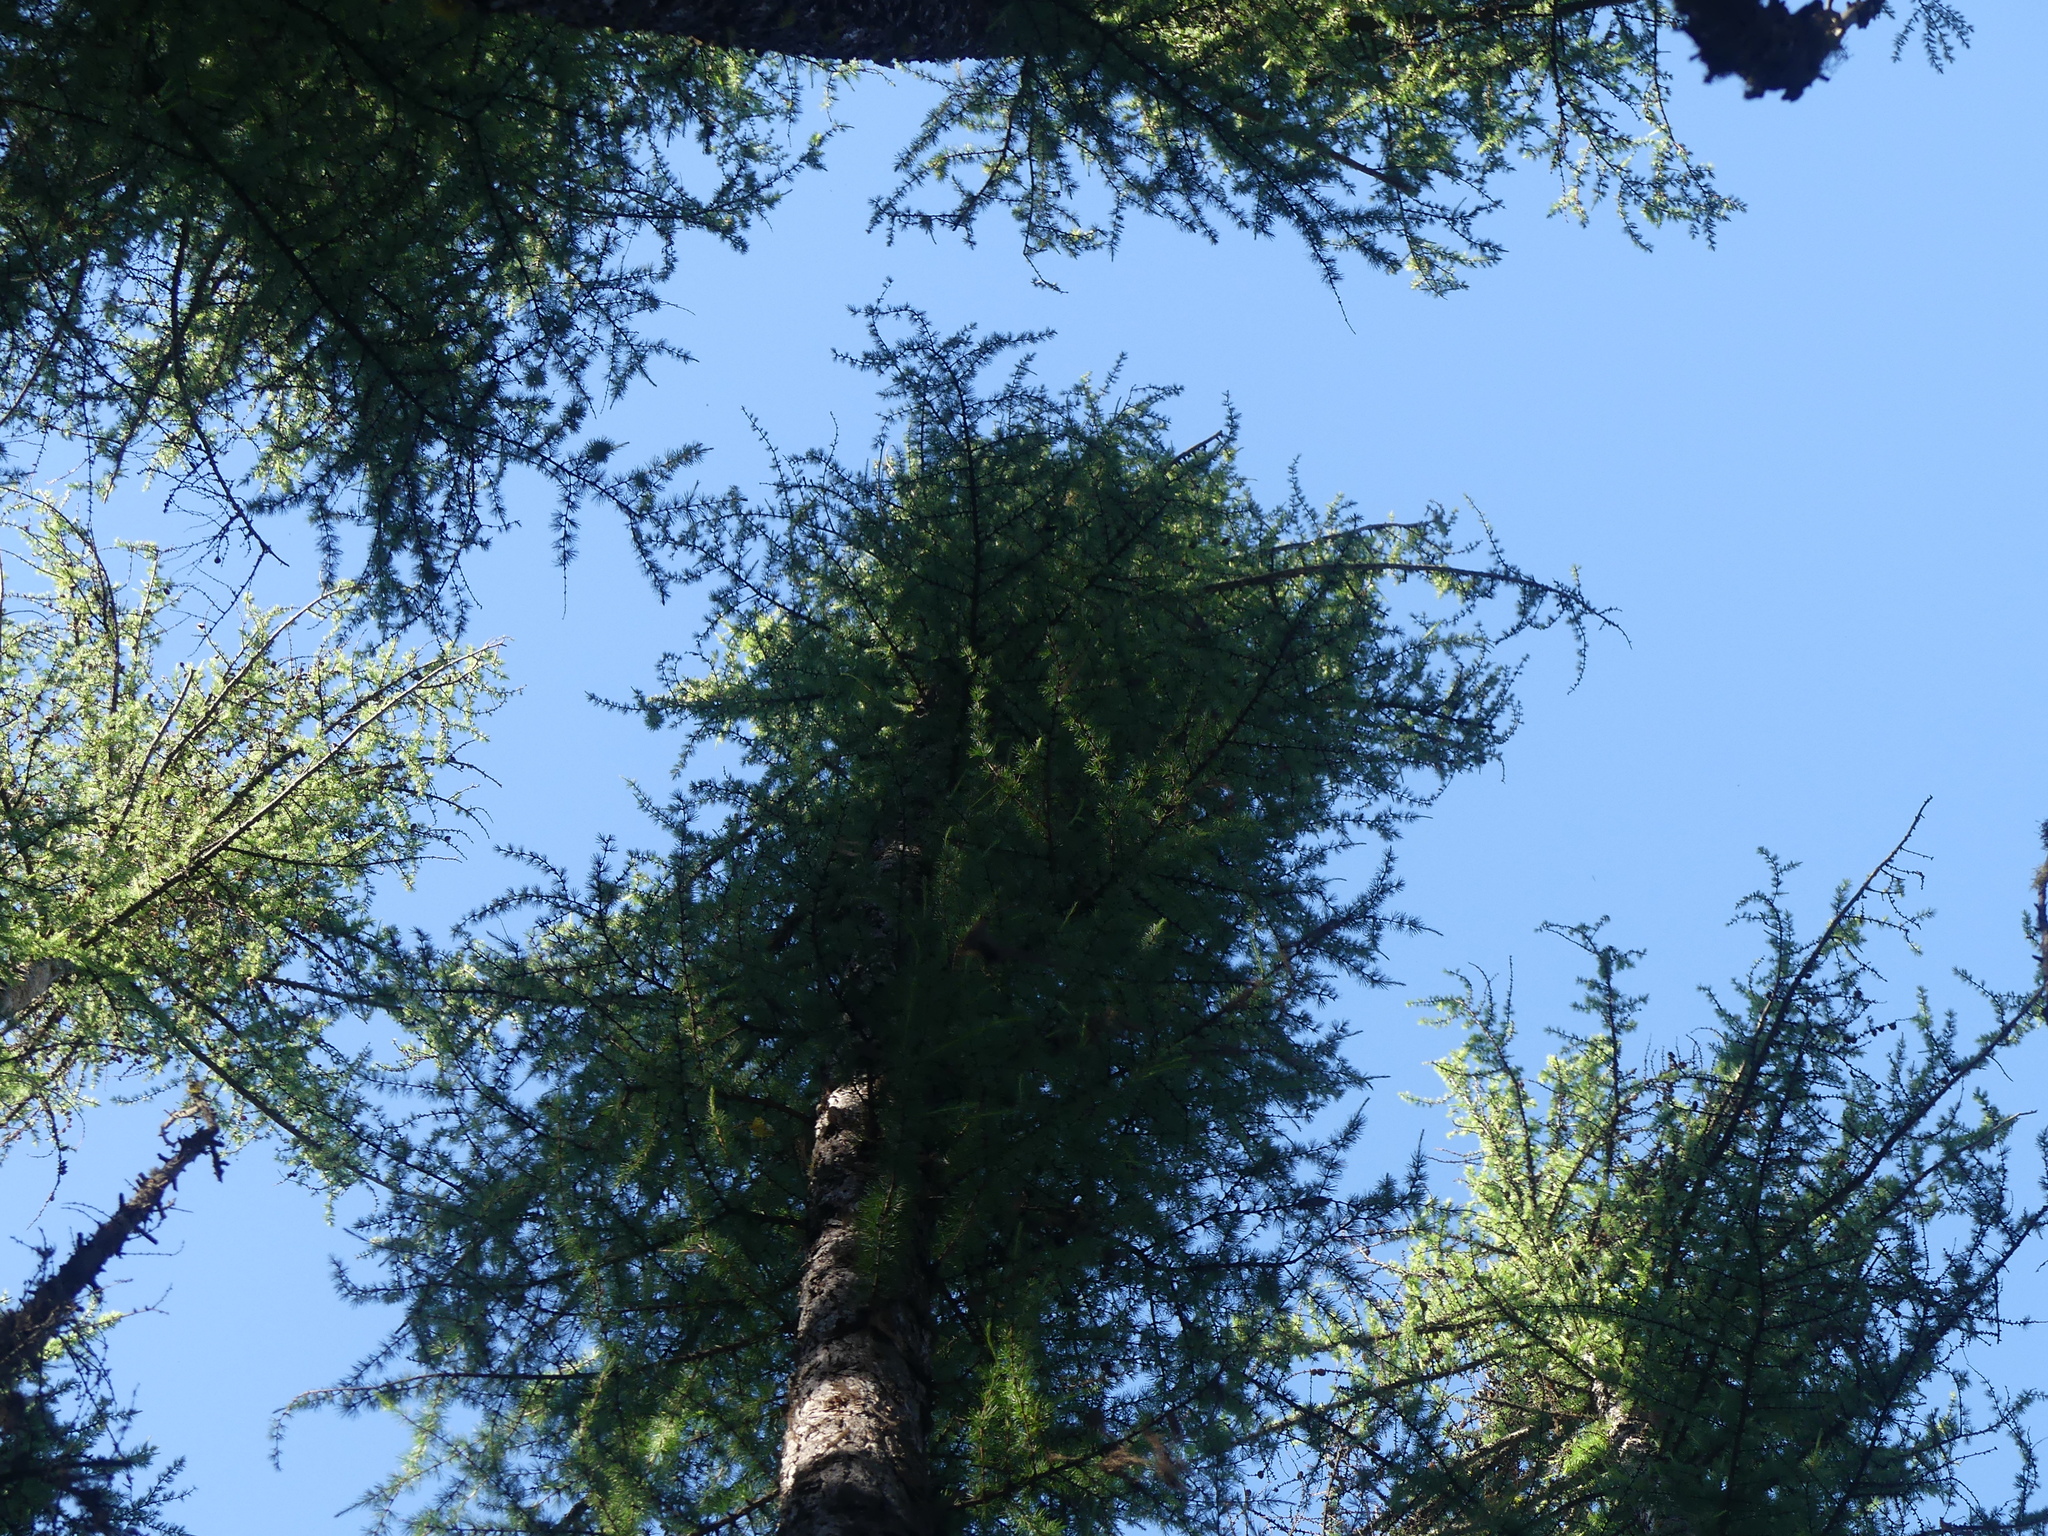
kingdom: Plantae
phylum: Tracheophyta
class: Pinopsida
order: Pinales
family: Pinaceae
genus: Larix
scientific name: Larix occidentalis
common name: Western larch
